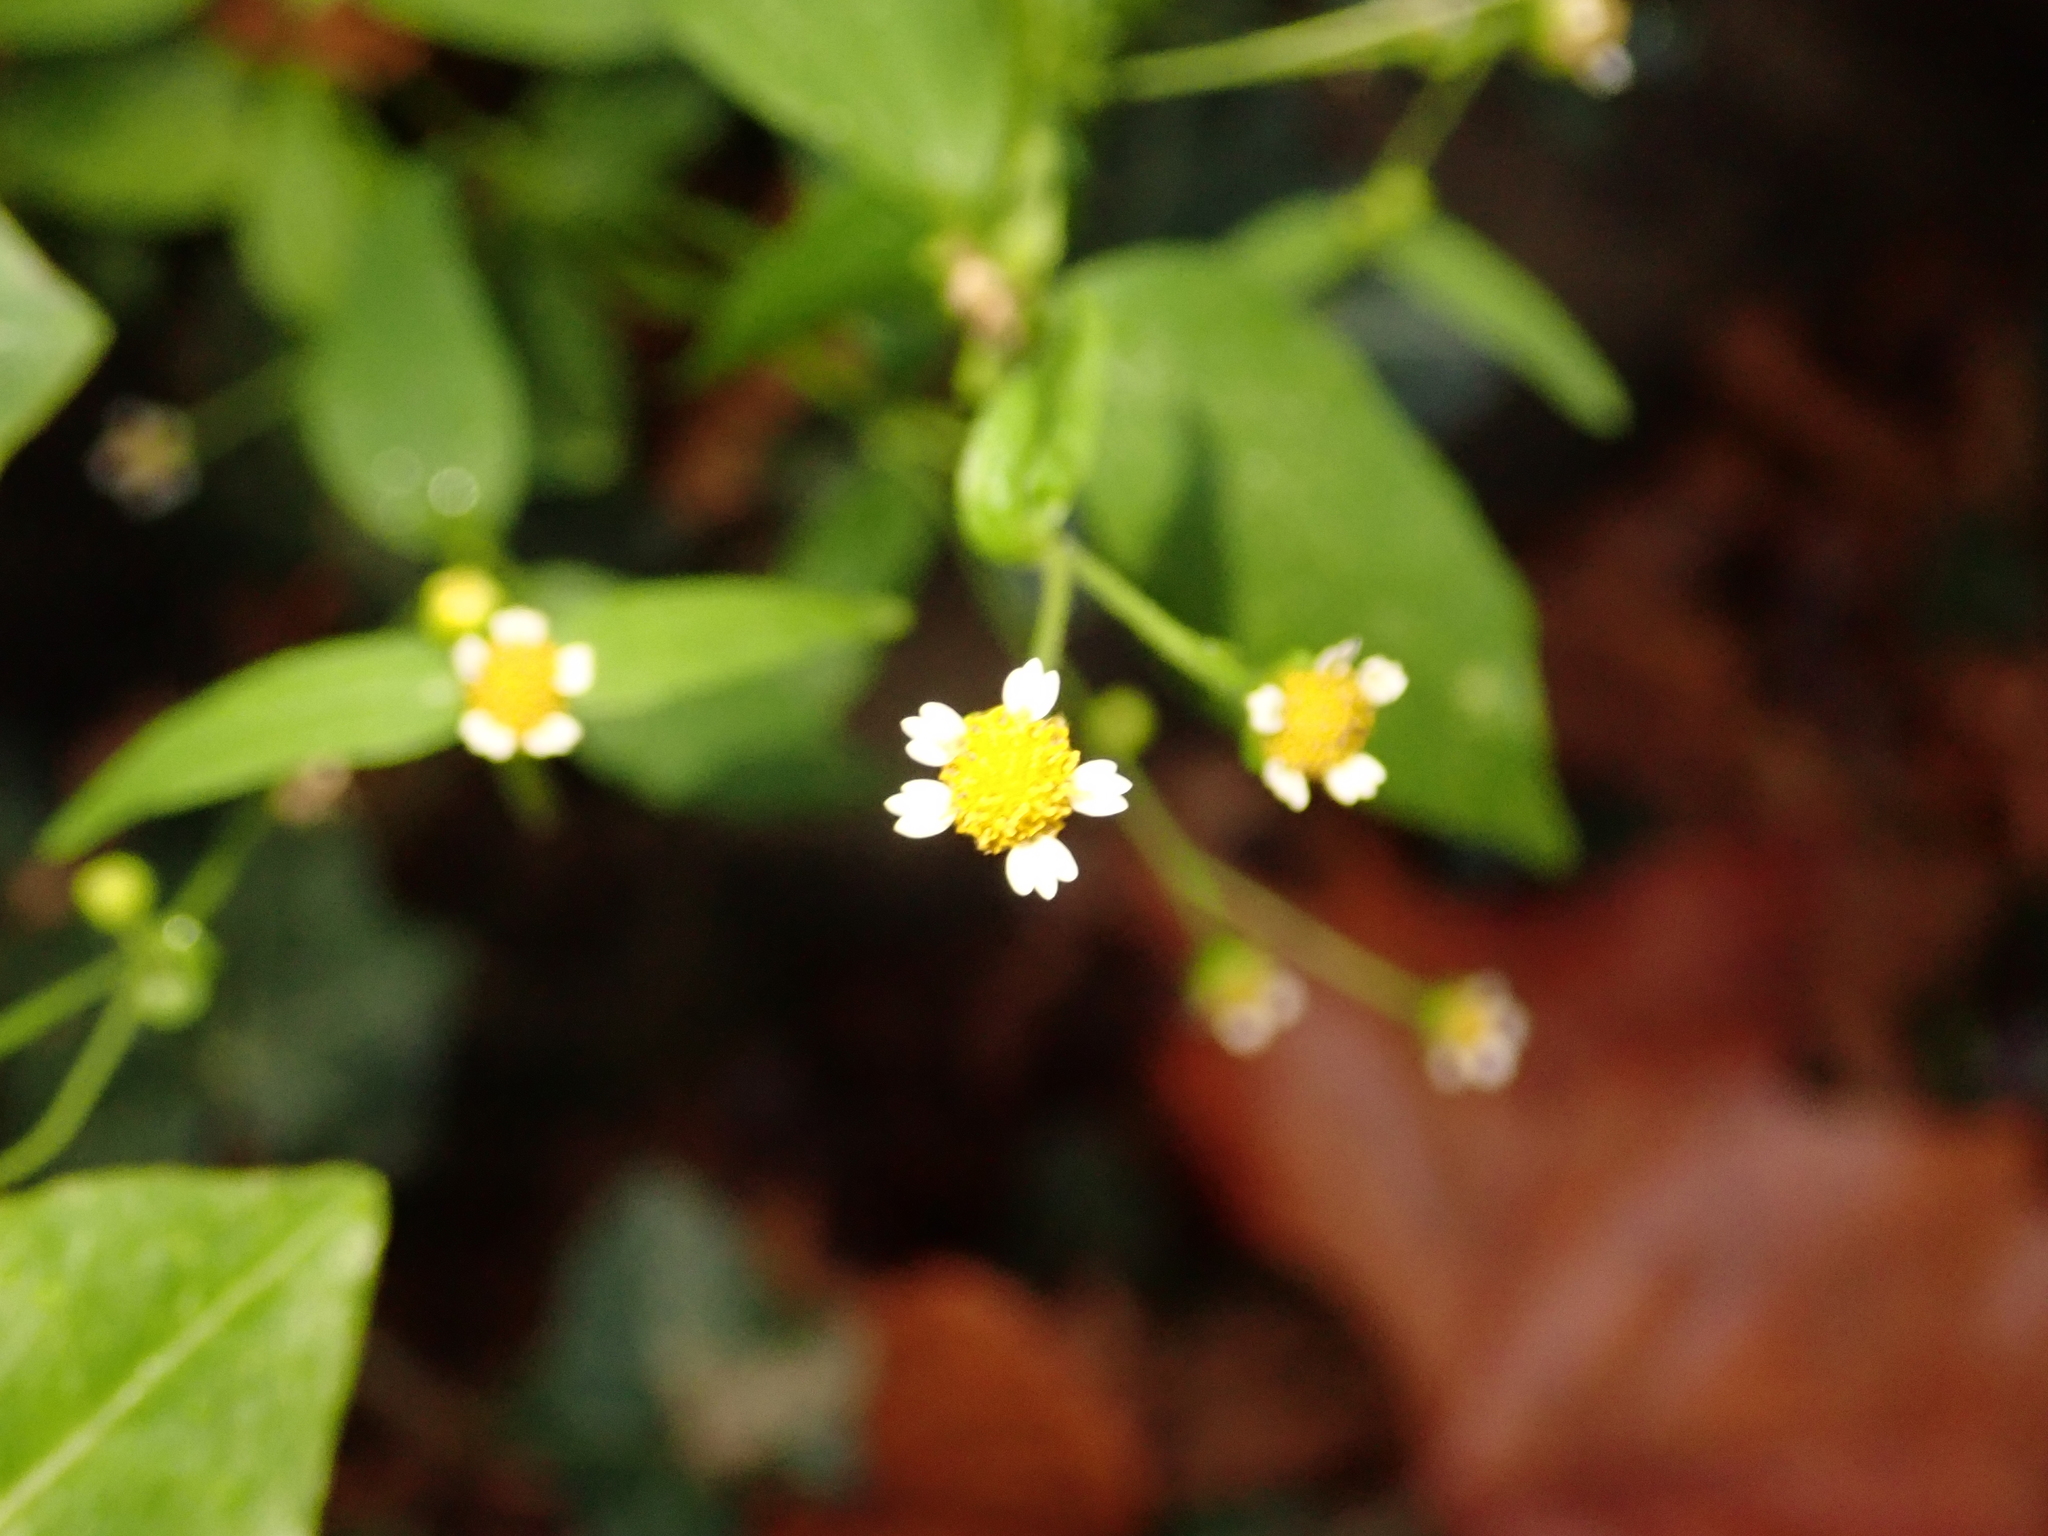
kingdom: Plantae
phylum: Tracheophyta
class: Magnoliopsida
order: Asterales
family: Asteraceae
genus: Galinsoga
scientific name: Galinsoga parviflora
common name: Gallant soldier
